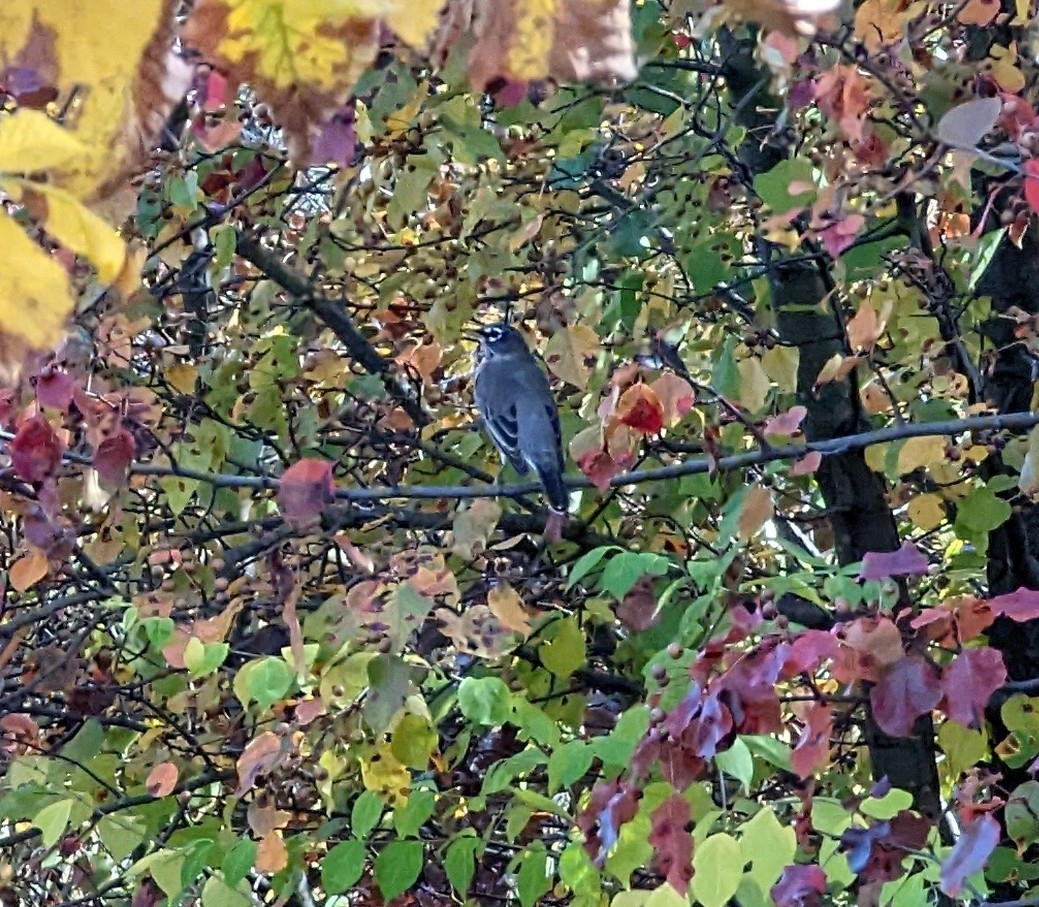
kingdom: Animalia
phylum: Chordata
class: Aves
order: Passeriformes
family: Turdidae
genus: Turdus
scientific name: Turdus migratorius
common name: American robin
